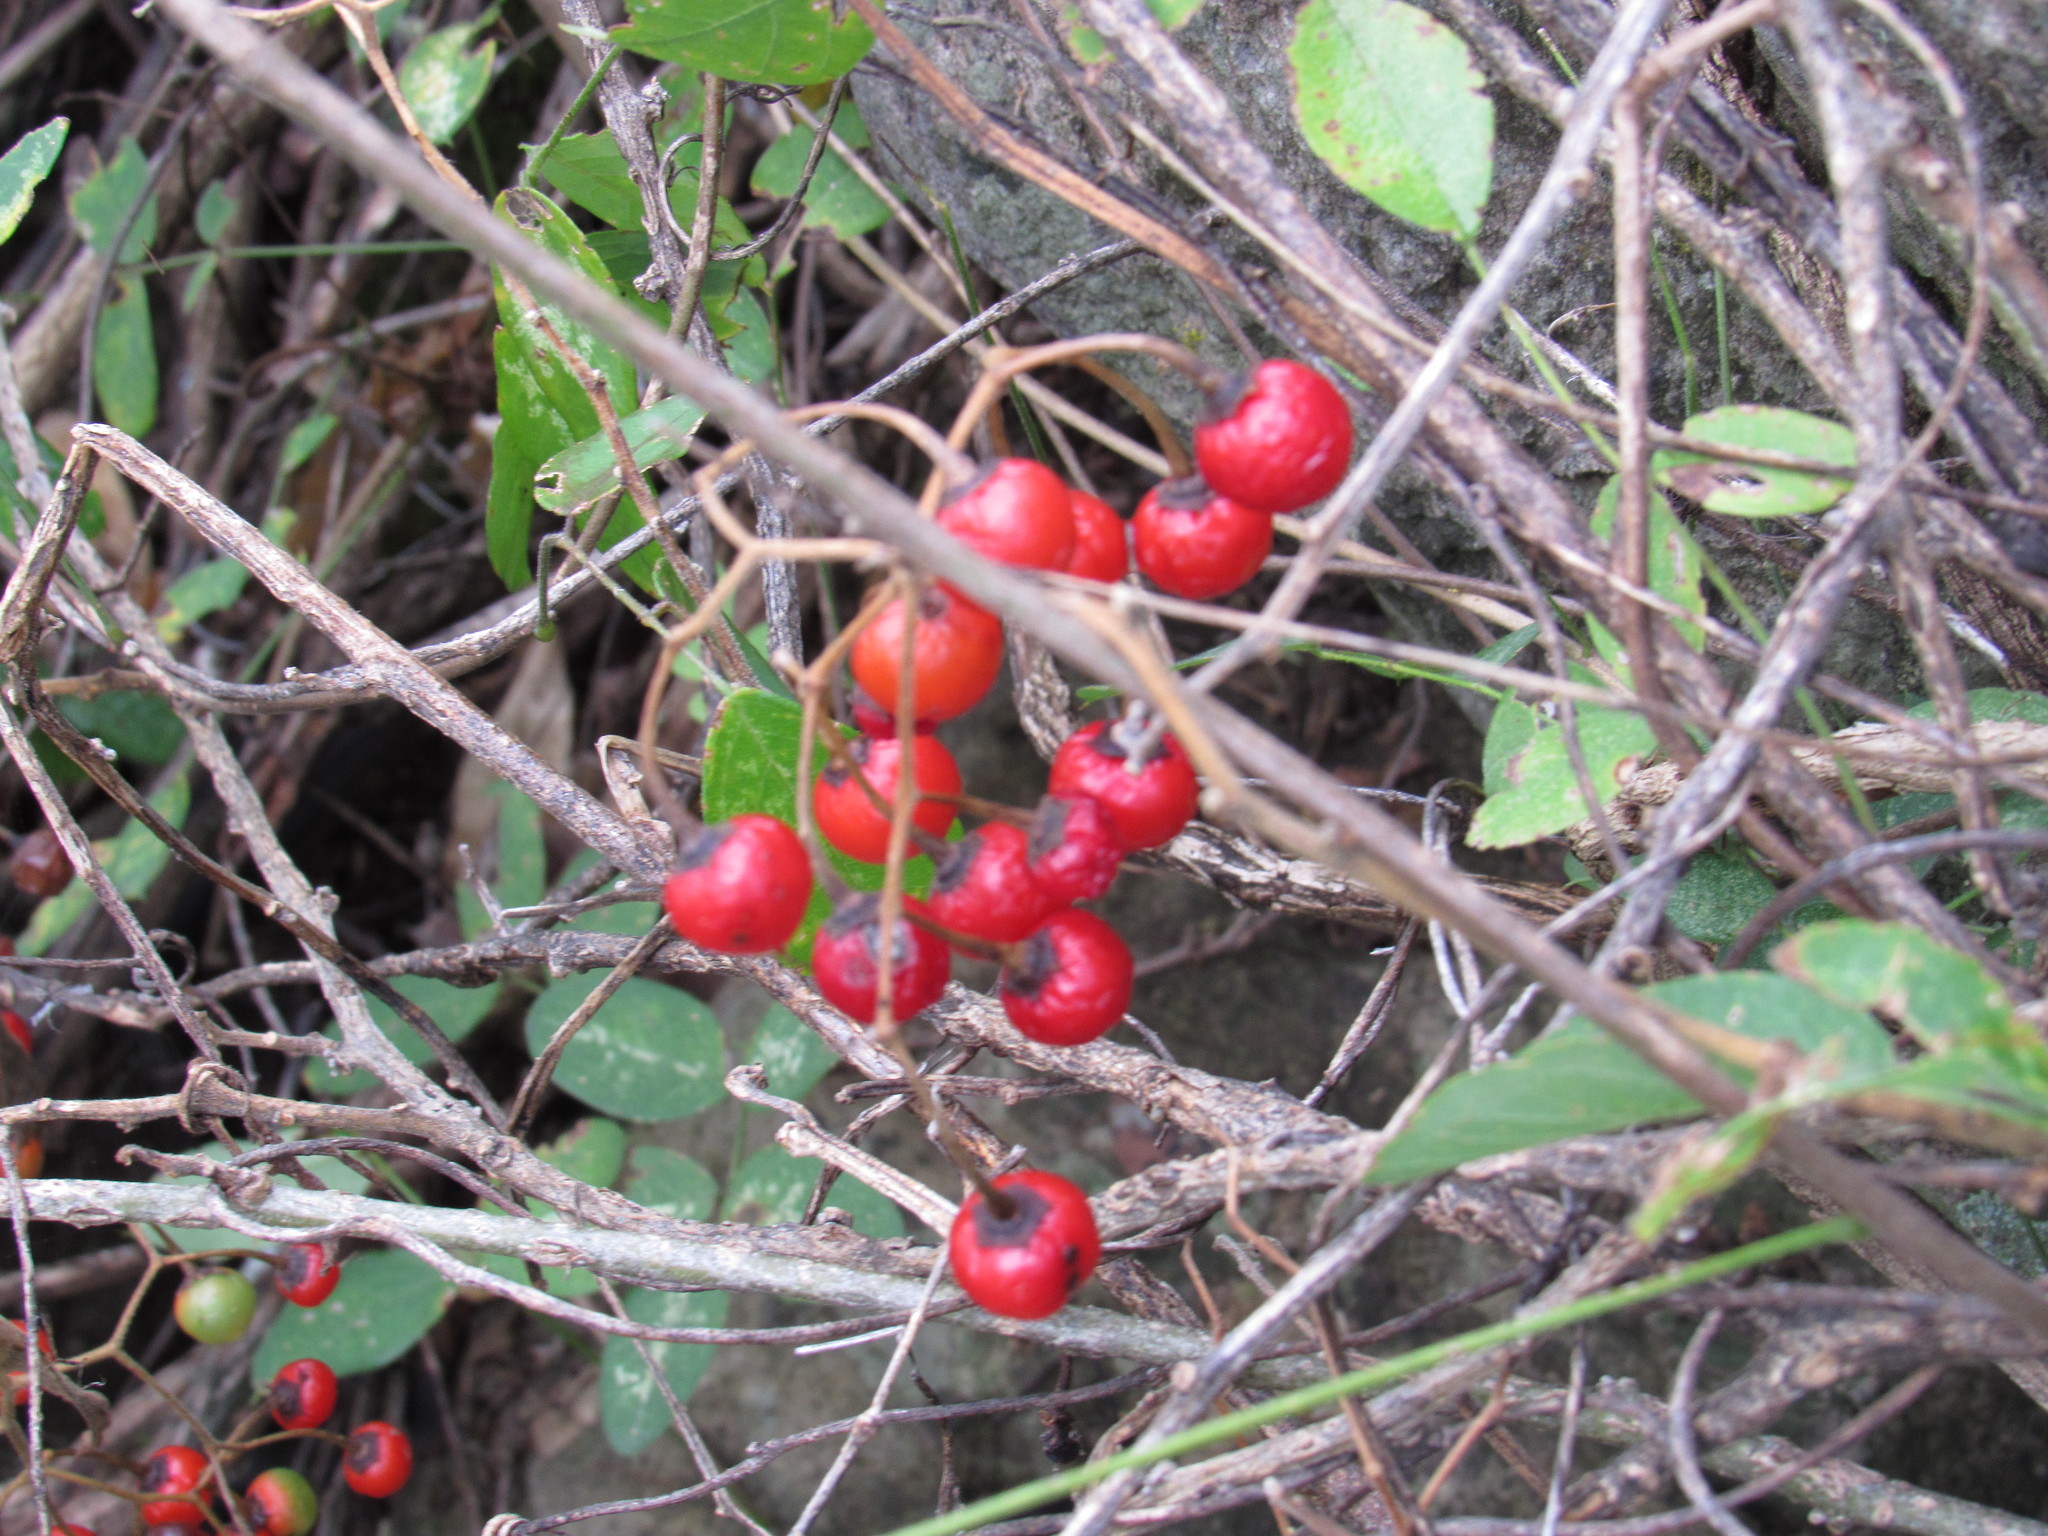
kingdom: Plantae
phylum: Tracheophyta
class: Magnoliopsida
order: Solanales
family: Solanaceae
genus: Solanum
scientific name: Solanum dulcamaroides
